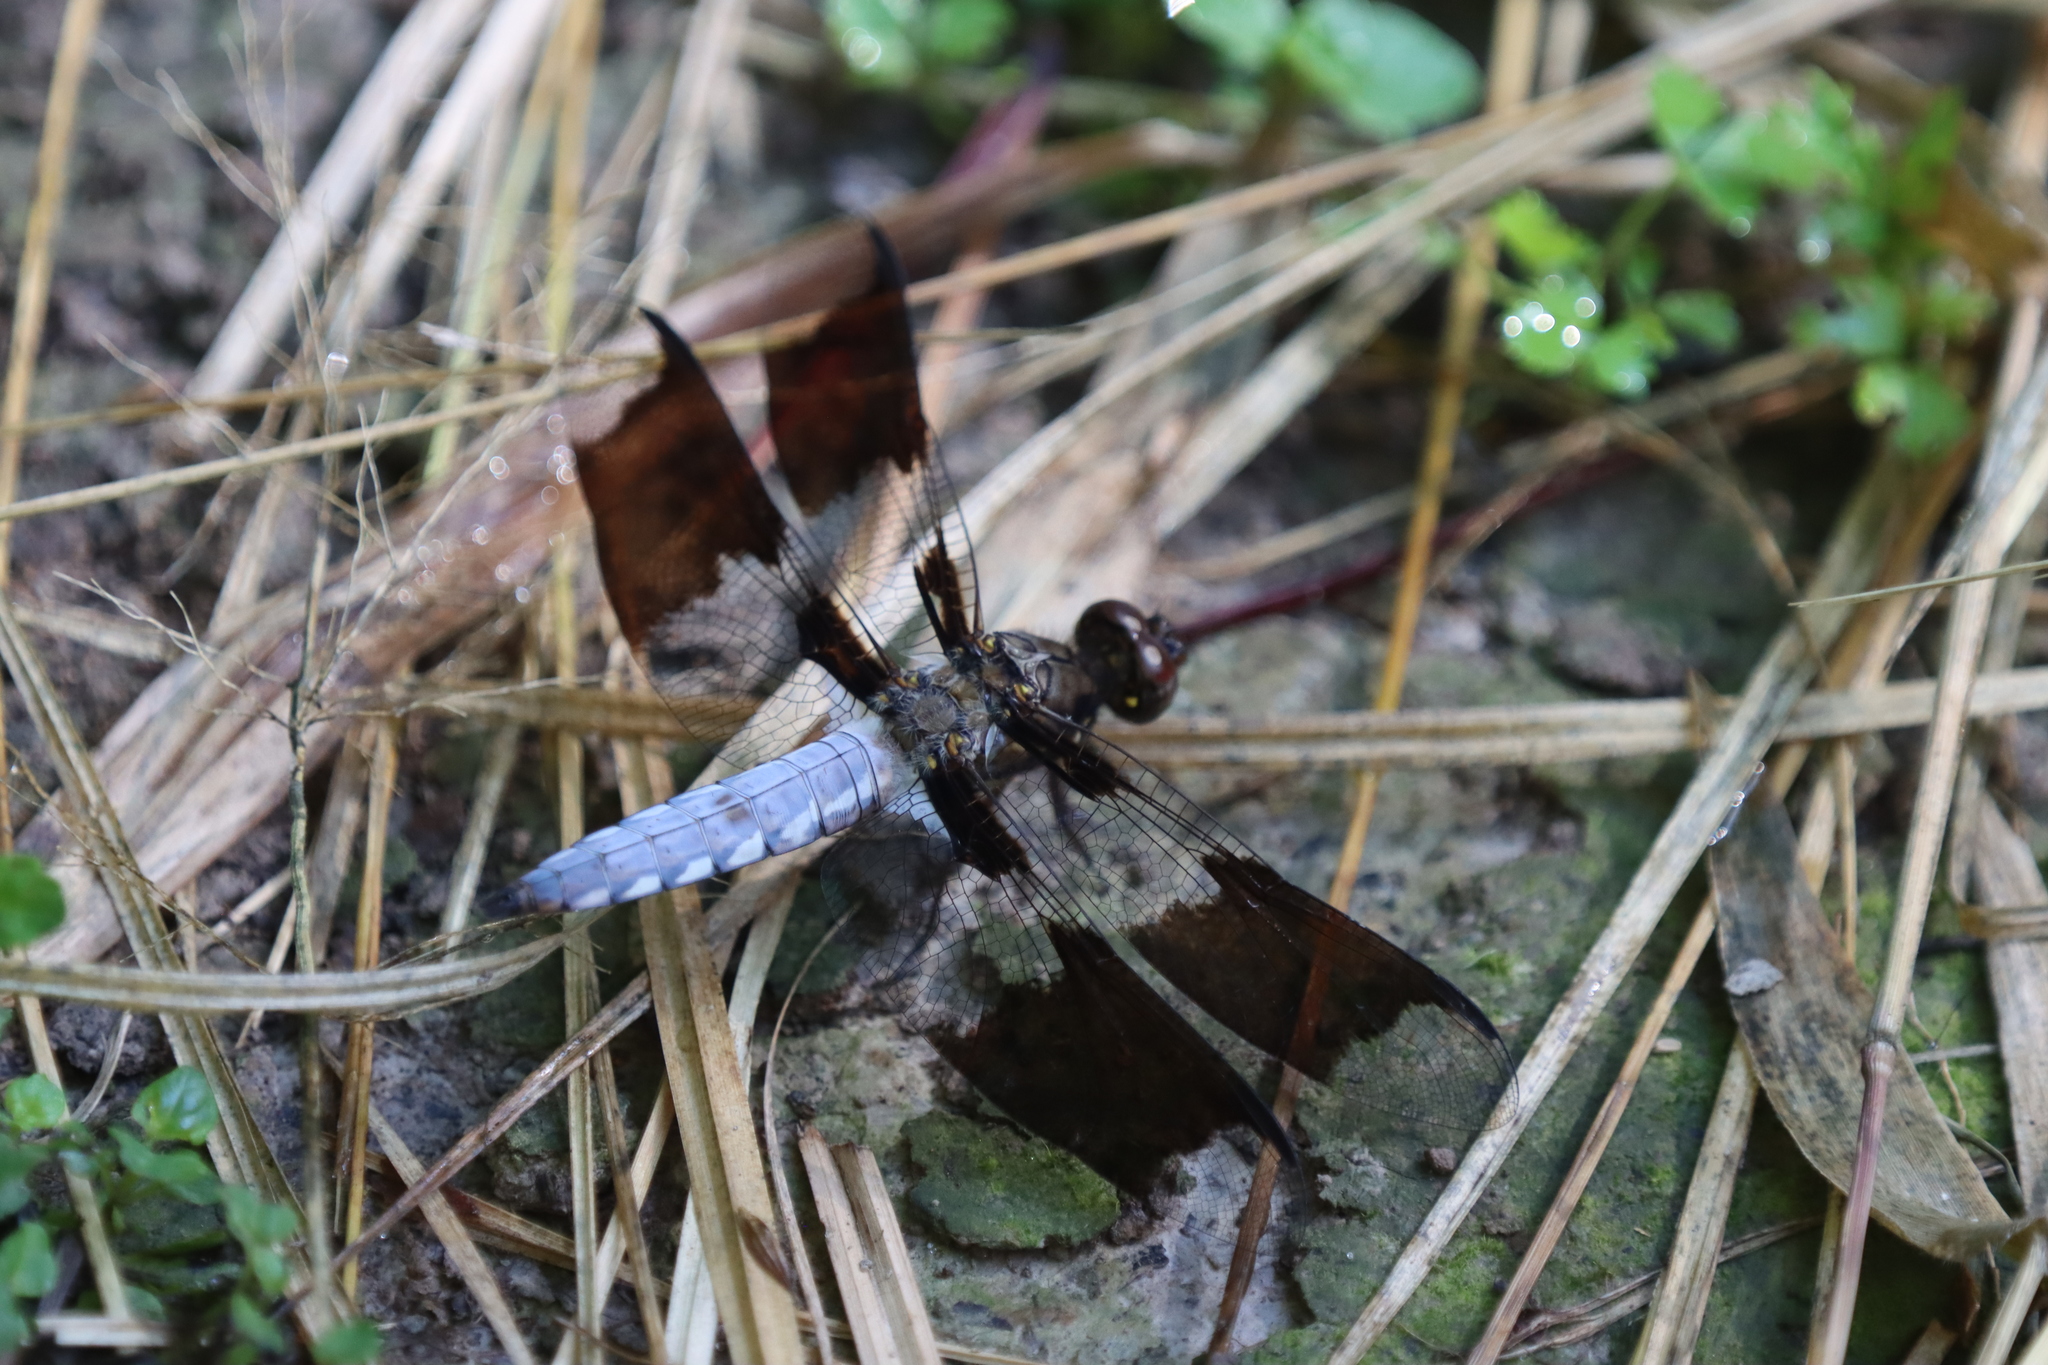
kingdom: Animalia
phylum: Arthropoda
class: Insecta
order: Odonata
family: Libellulidae
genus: Plathemis
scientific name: Plathemis lydia
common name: Common whitetail
